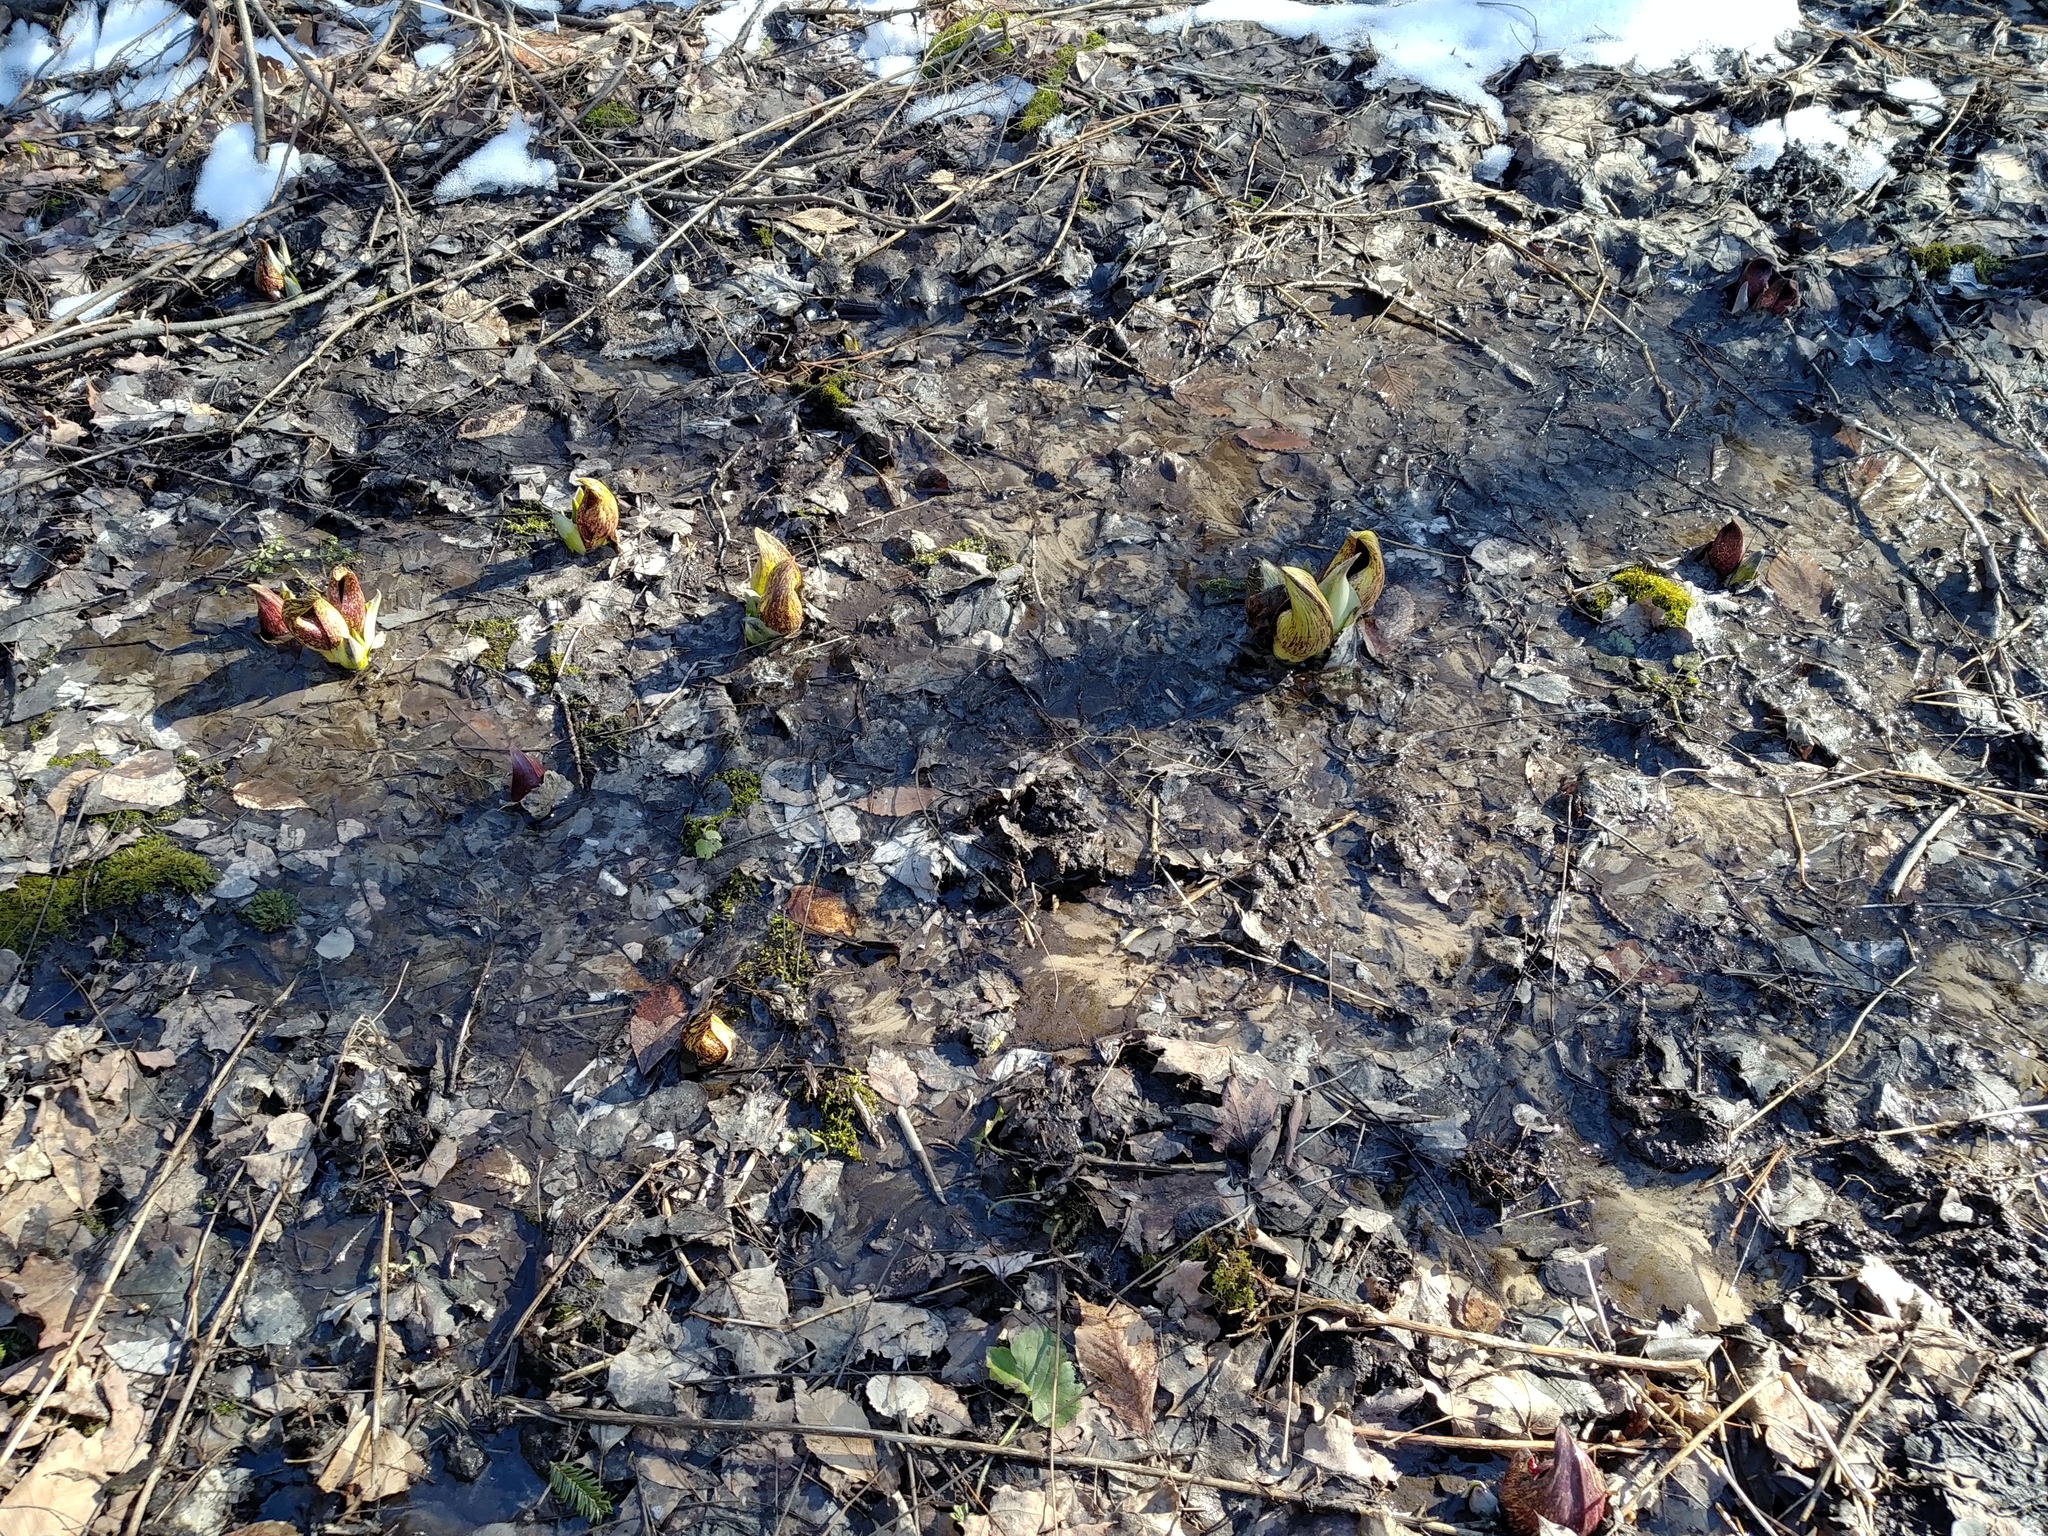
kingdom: Plantae
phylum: Tracheophyta
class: Liliopsida
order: Alismatales
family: Araceae
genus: Symplocarpus
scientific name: Symplocarpus foetidus
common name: Eastern skunk cabbage
